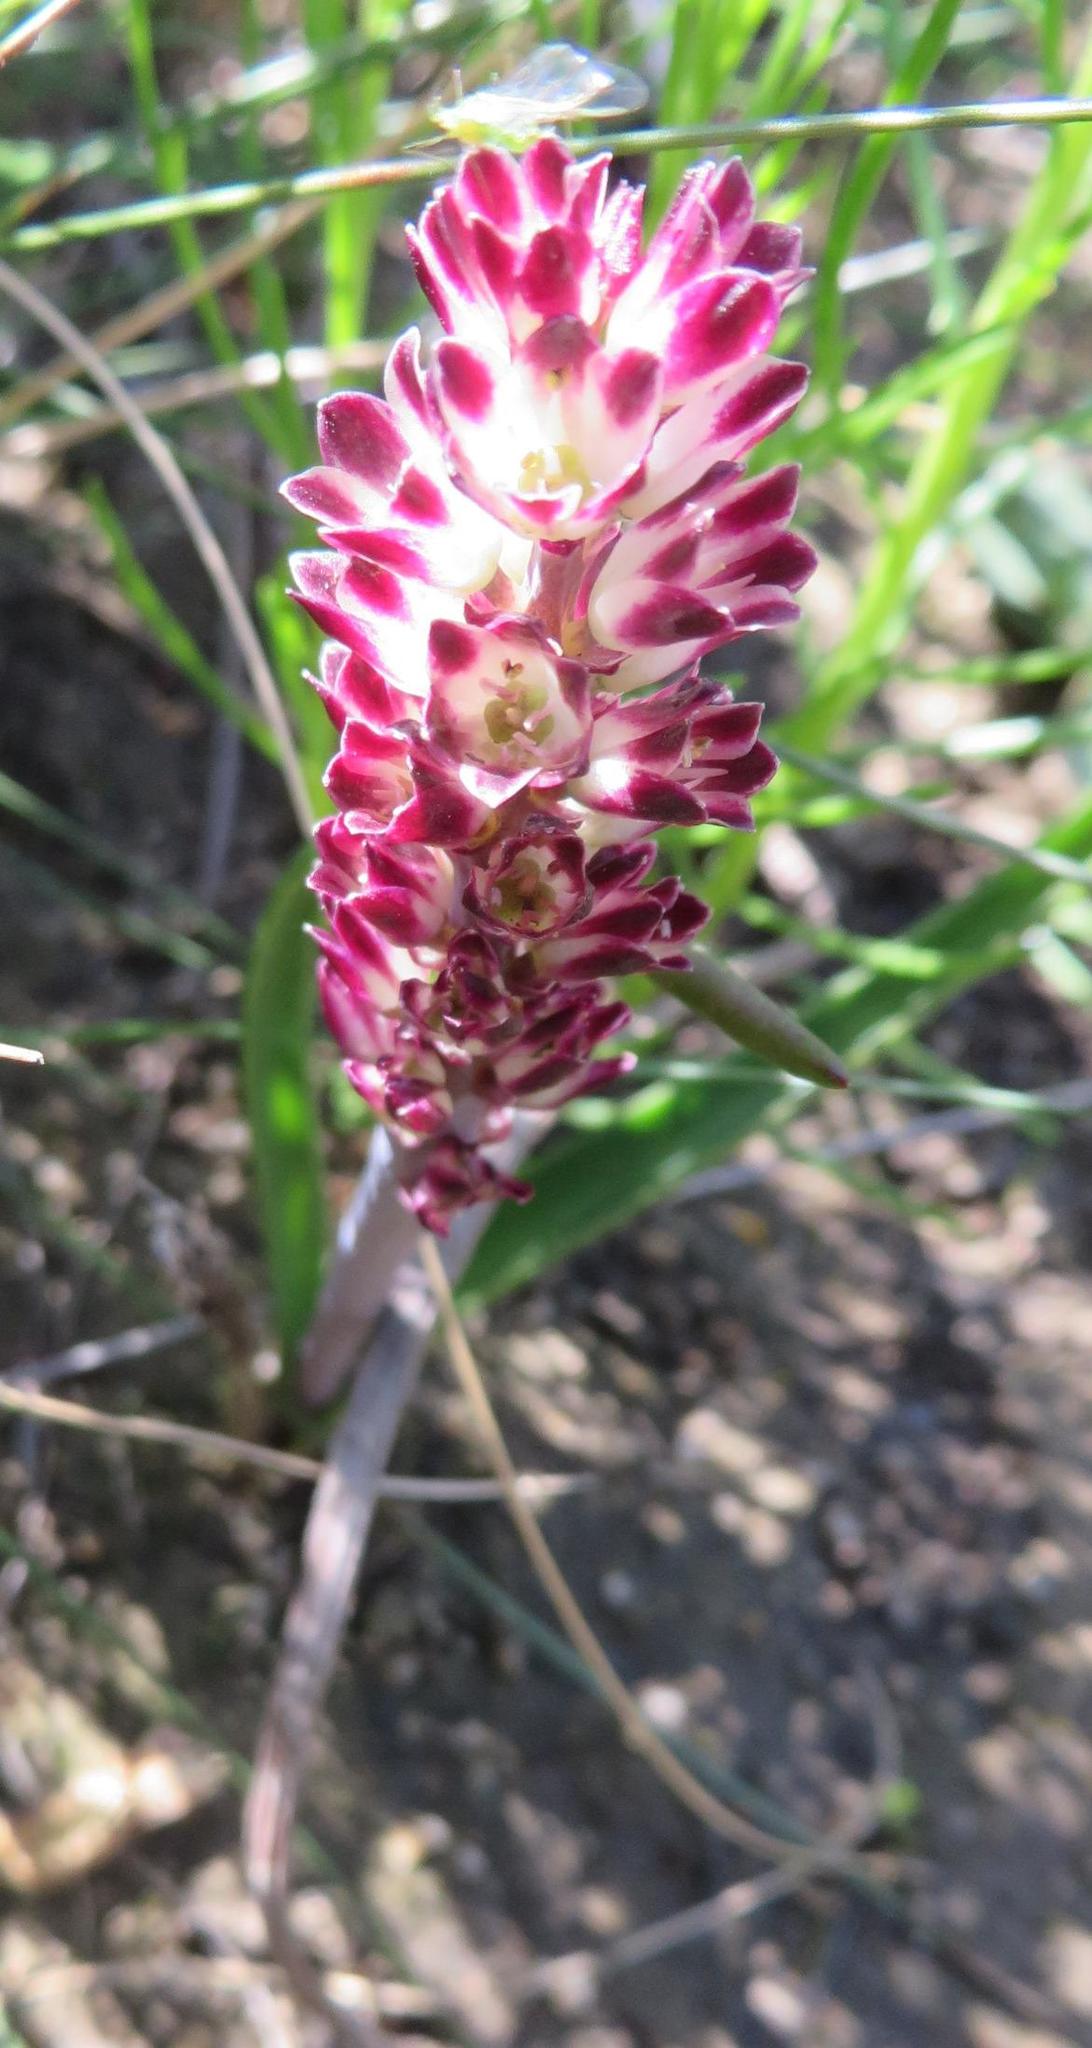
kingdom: Plantae
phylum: Tracheophyta
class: Liliopsida
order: Asparagales
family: Asparagaceae
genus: Lachenalia
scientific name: Lachenalia liliiflora
